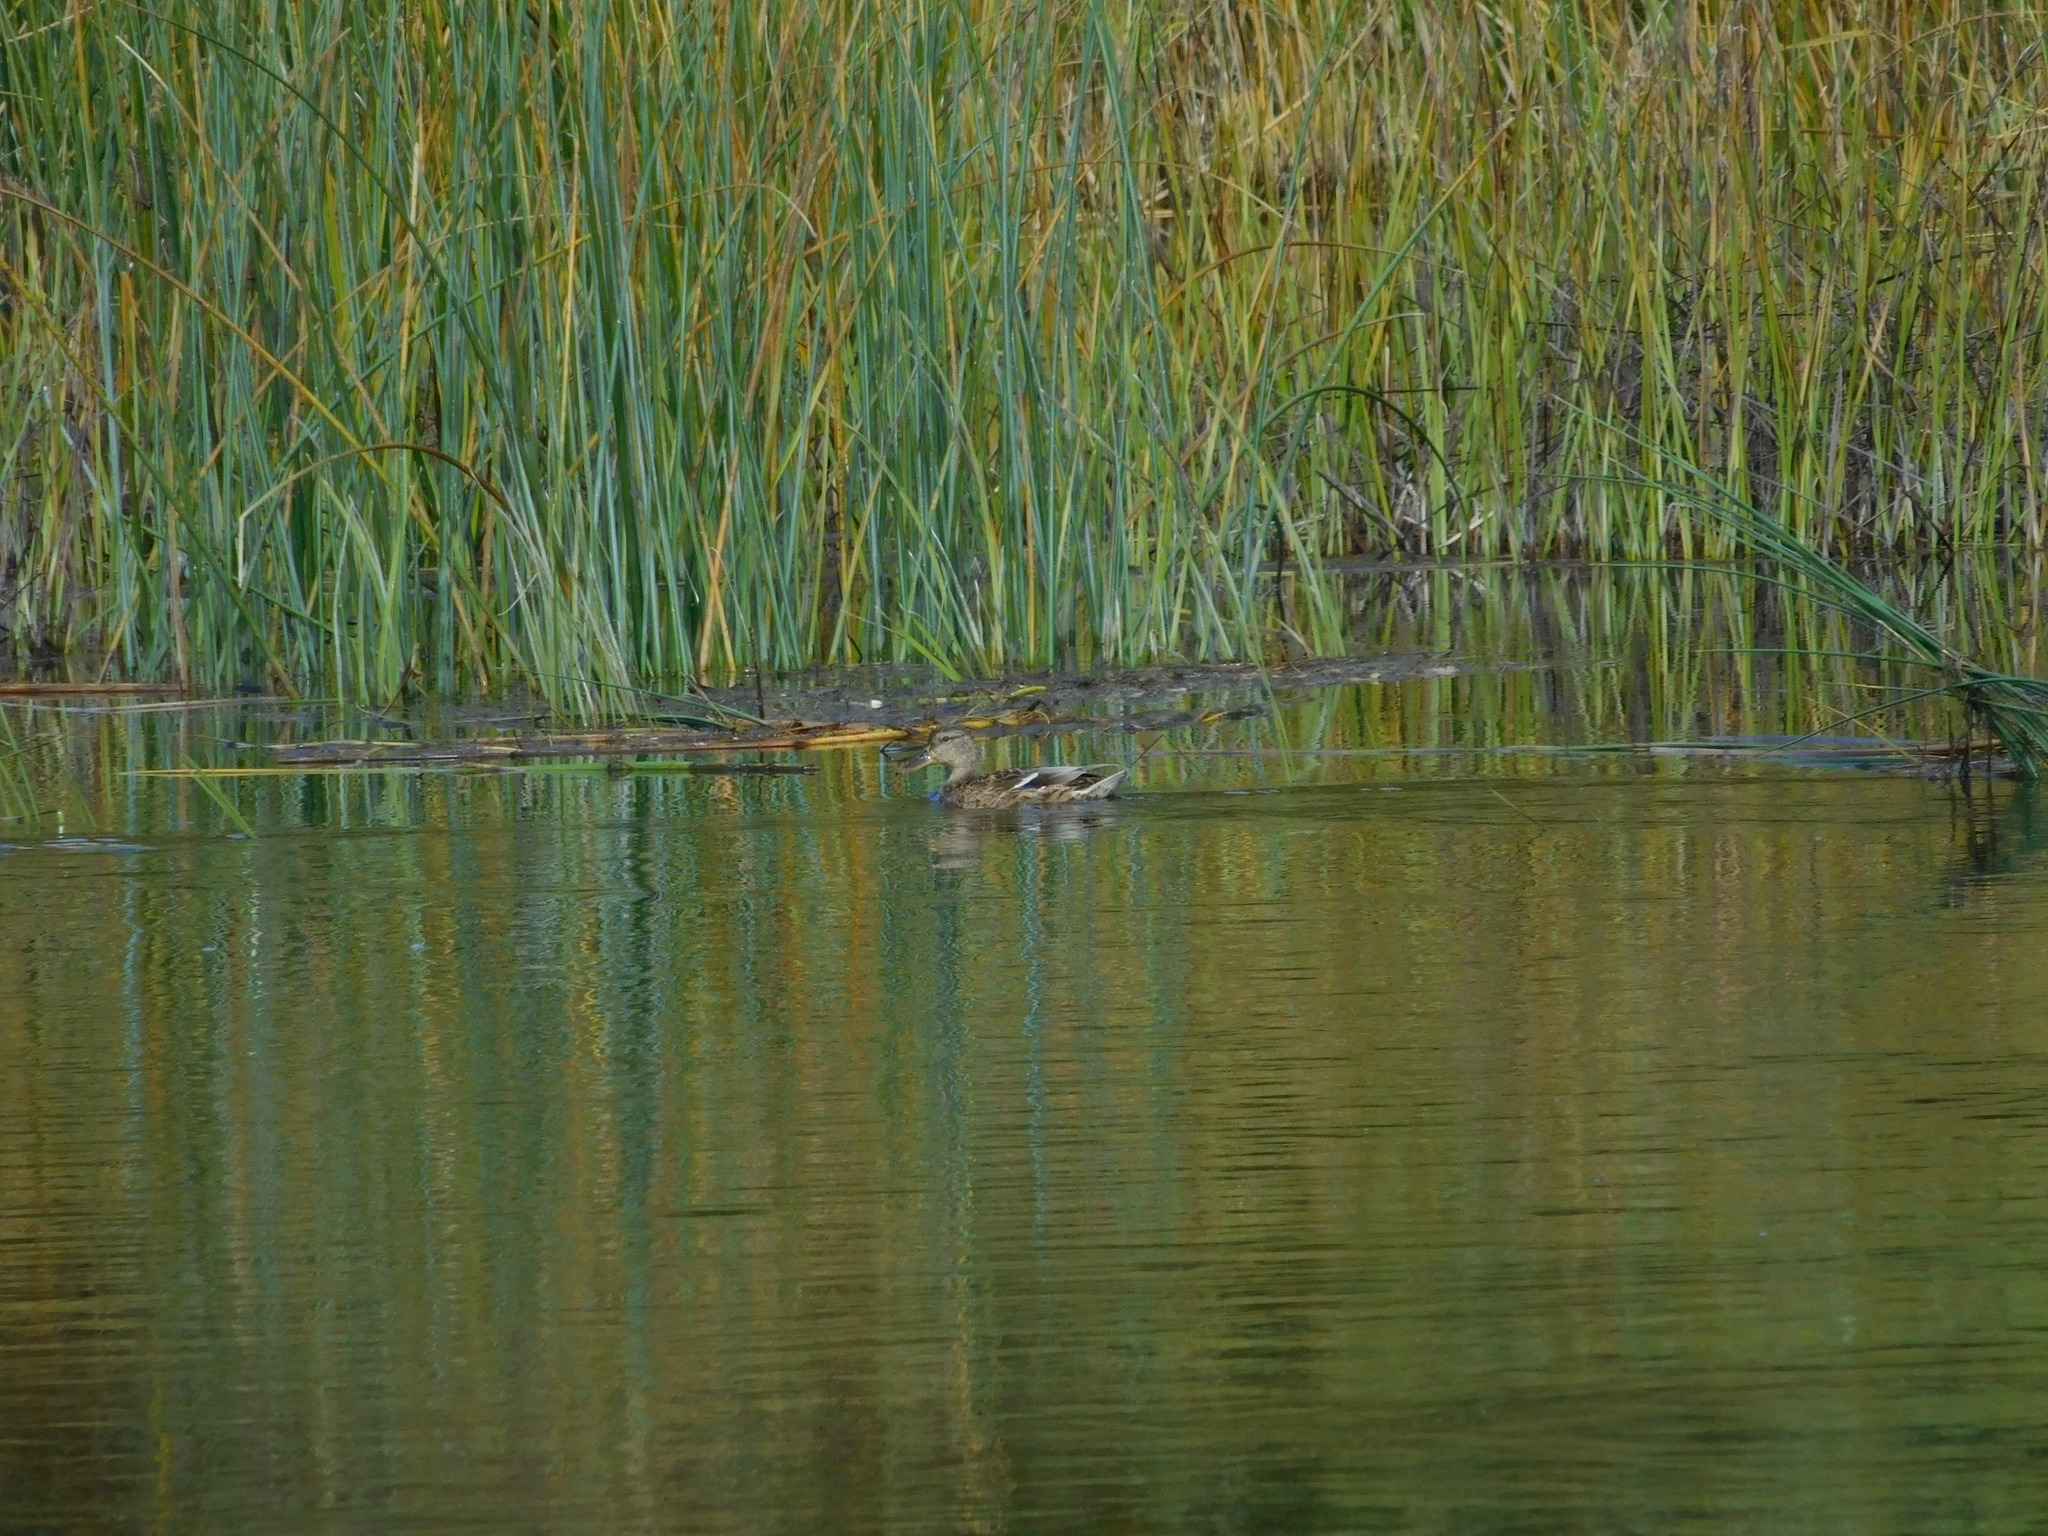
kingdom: Animalia
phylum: Chordata
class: Aves
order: Anseriformes
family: Anatidae
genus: Anas
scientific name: Anas platyrhynchos
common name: Mallard
